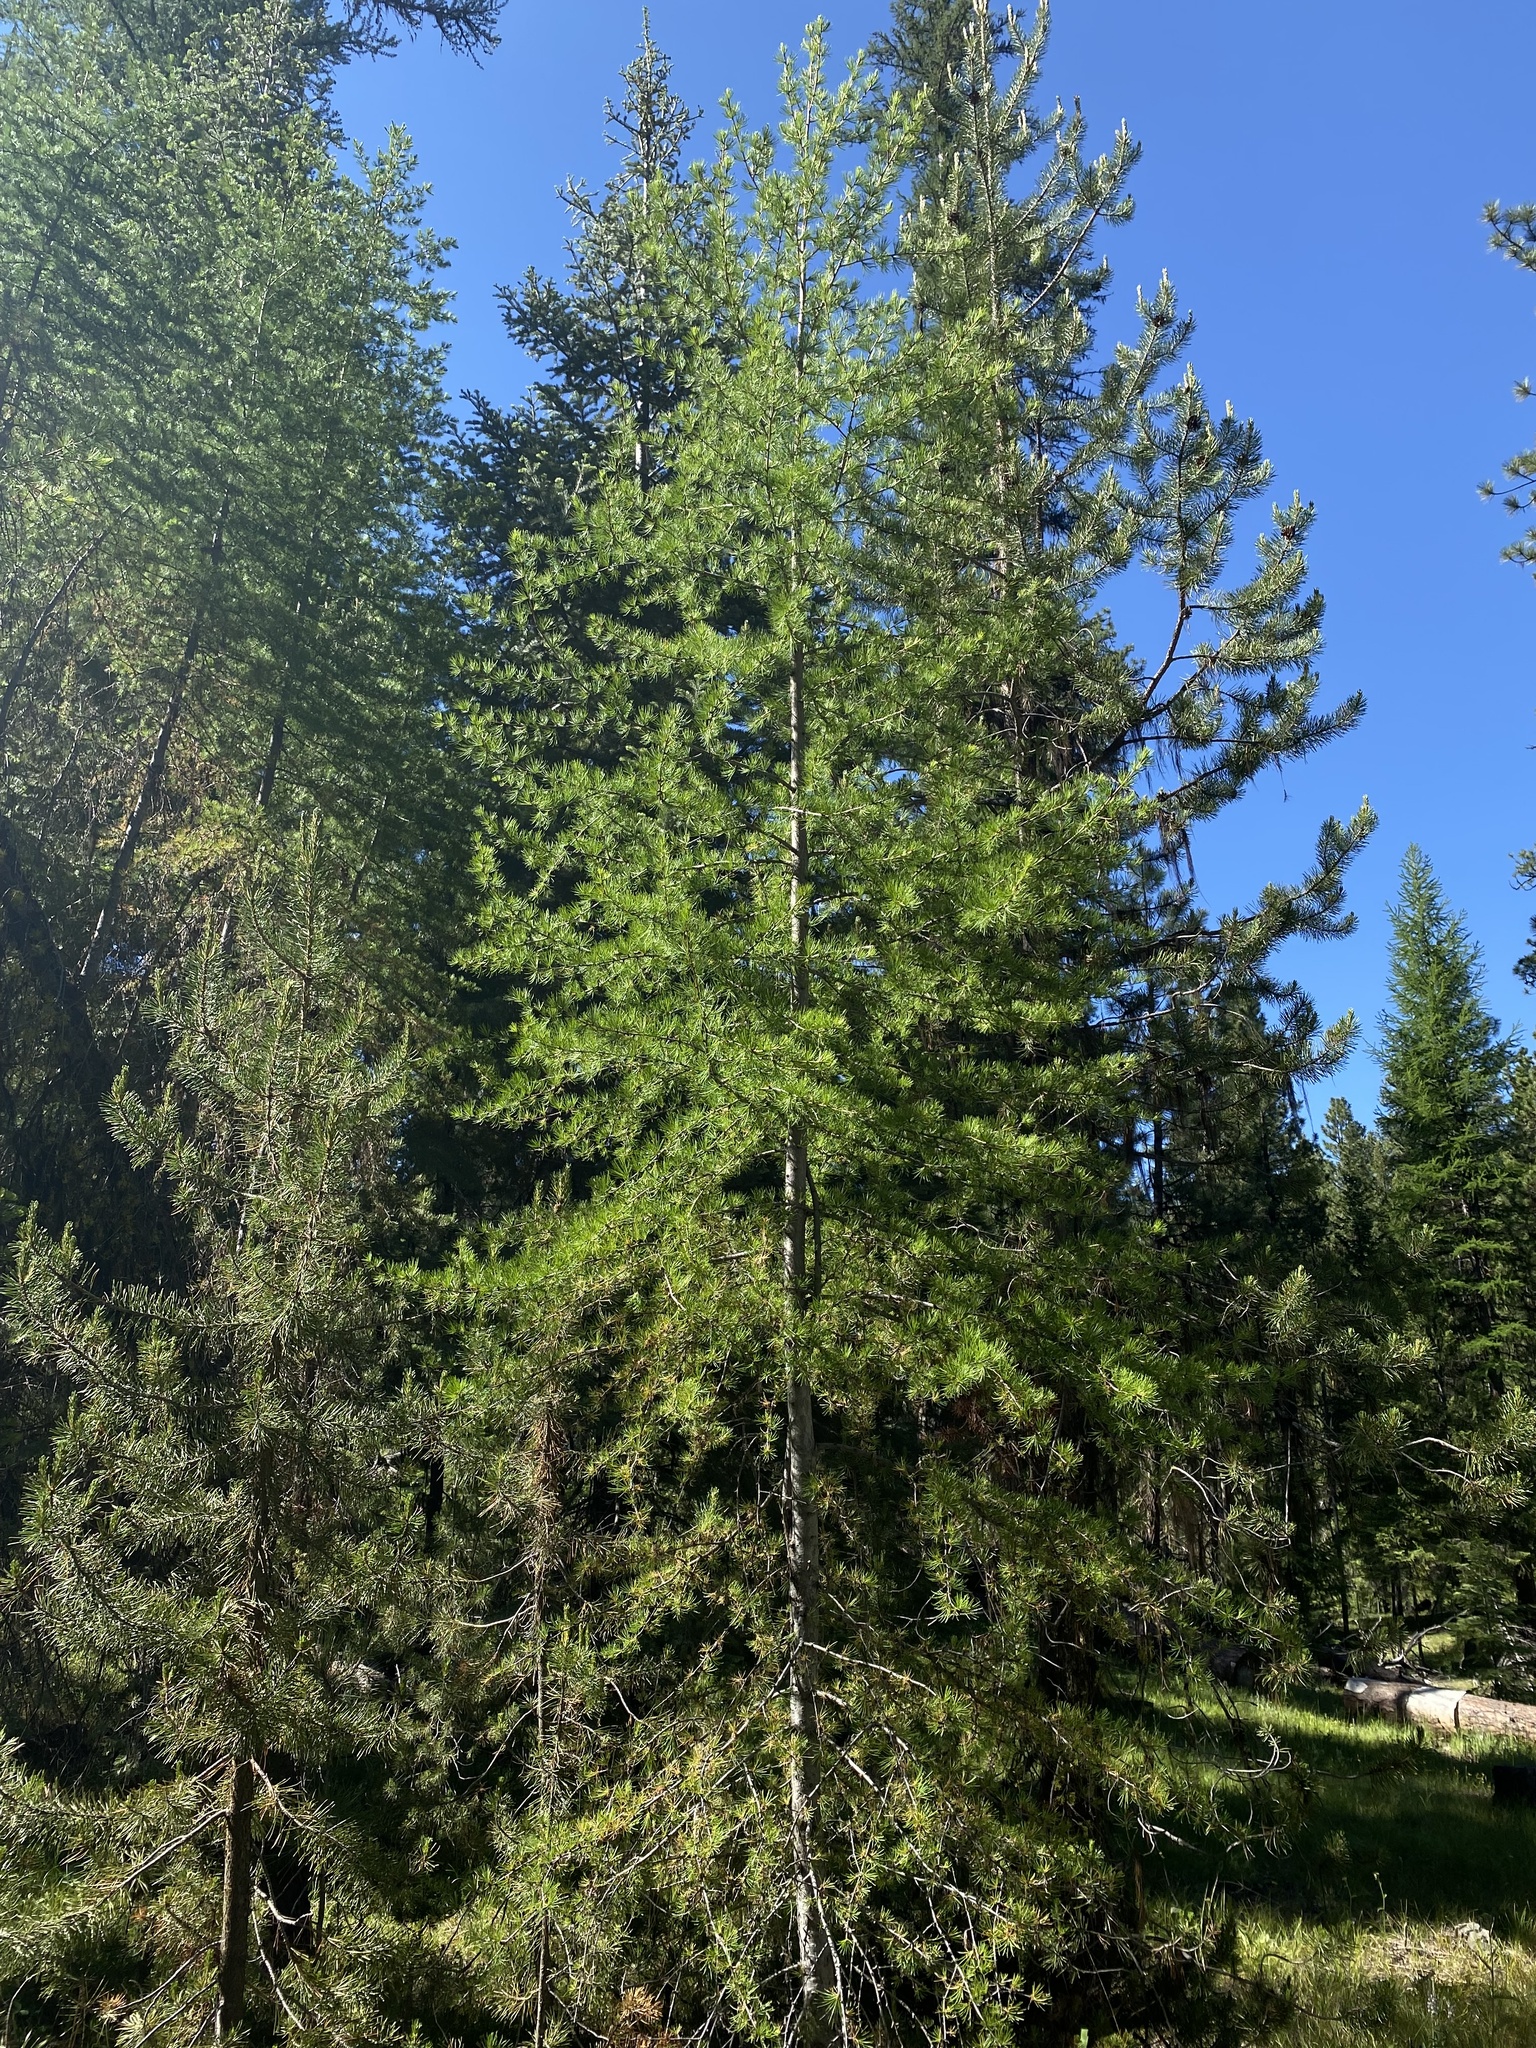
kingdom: Plantae
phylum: Tracheophyta
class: Pinopsida
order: Pinales
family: Pinaceae
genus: Larix
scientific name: Larix occidentalis
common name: Western larch
